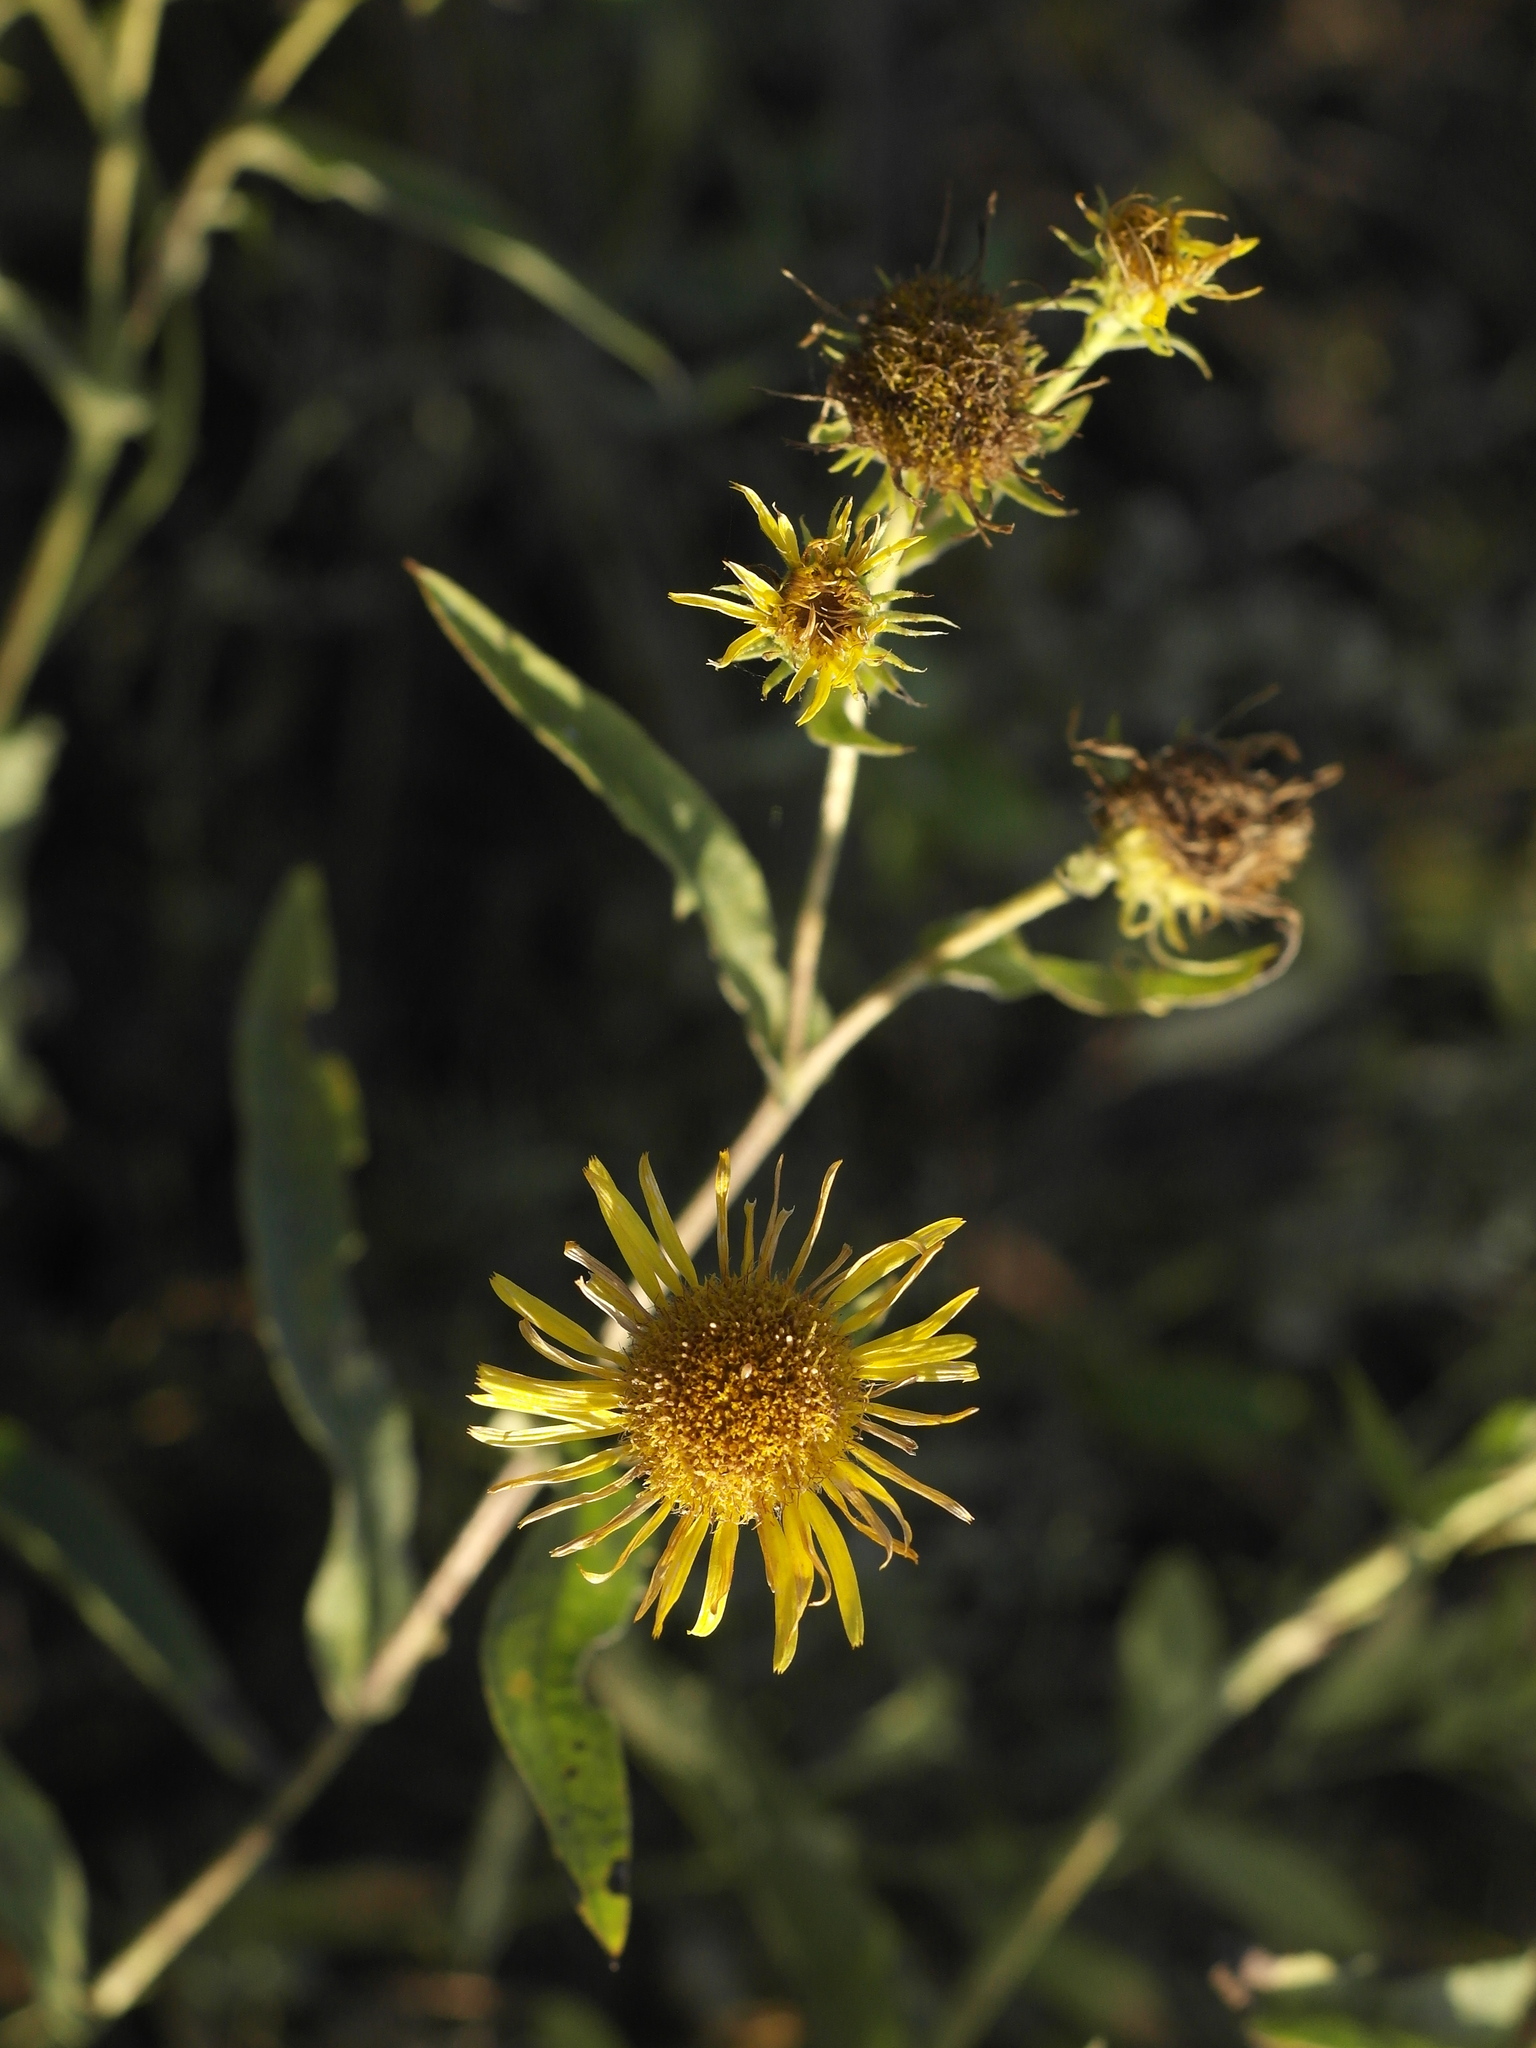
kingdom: Plantae
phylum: Tracheophyta
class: Magnoliopsida
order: Asterales
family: Asteraceae
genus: Pentanema
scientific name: Pentanema britannicum
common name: British elecampane
